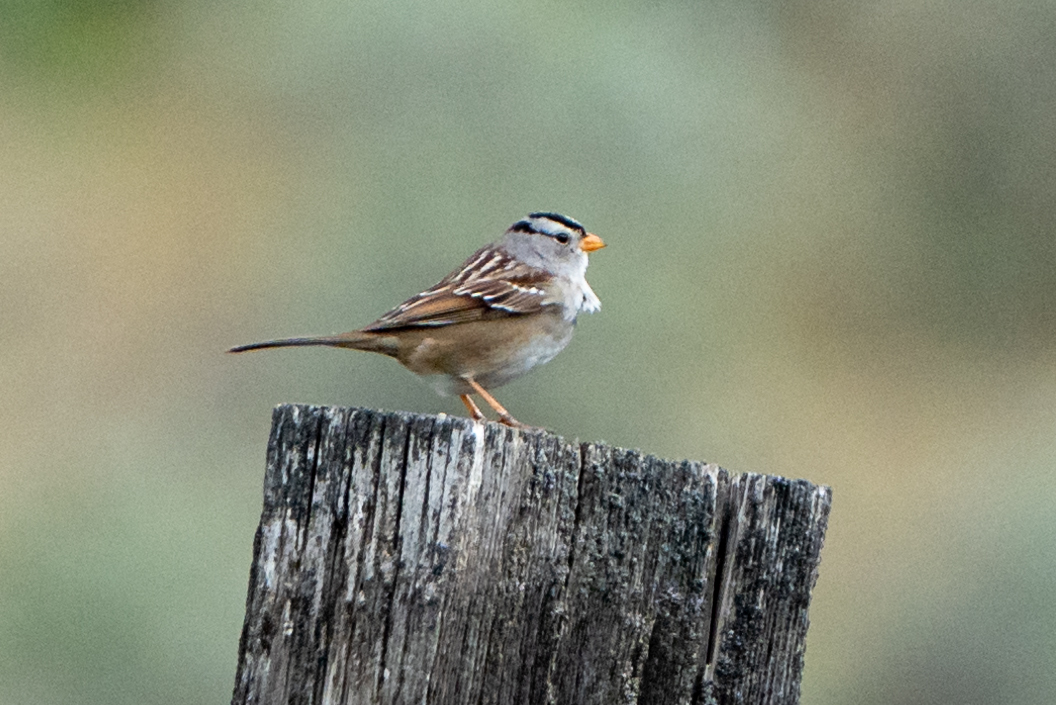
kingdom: Animalia
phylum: Chordata
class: Aves
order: Passeriformes
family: Passerellidae
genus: Zonotrichia
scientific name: Zonotrichia leucophrys
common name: White-crowned sparrow
